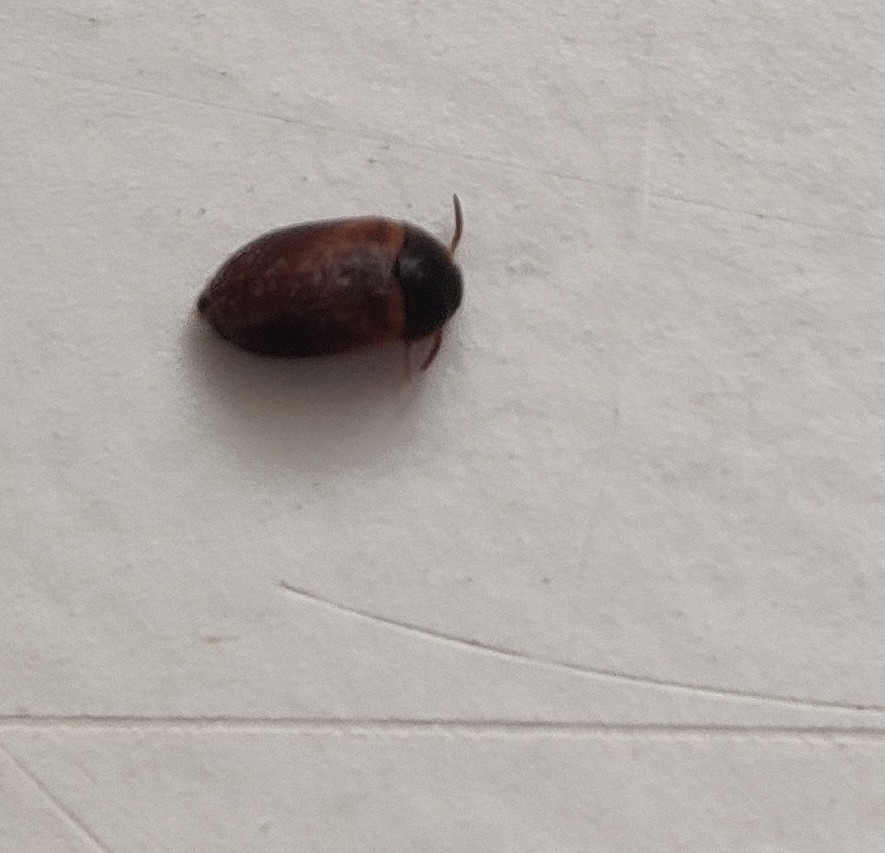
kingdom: Animalia
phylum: Arthropoda
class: Insecta
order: Coleoptera
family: Dermestidae
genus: Attagenus
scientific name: Attagenus smirnovi
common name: Brown carpet beetle
